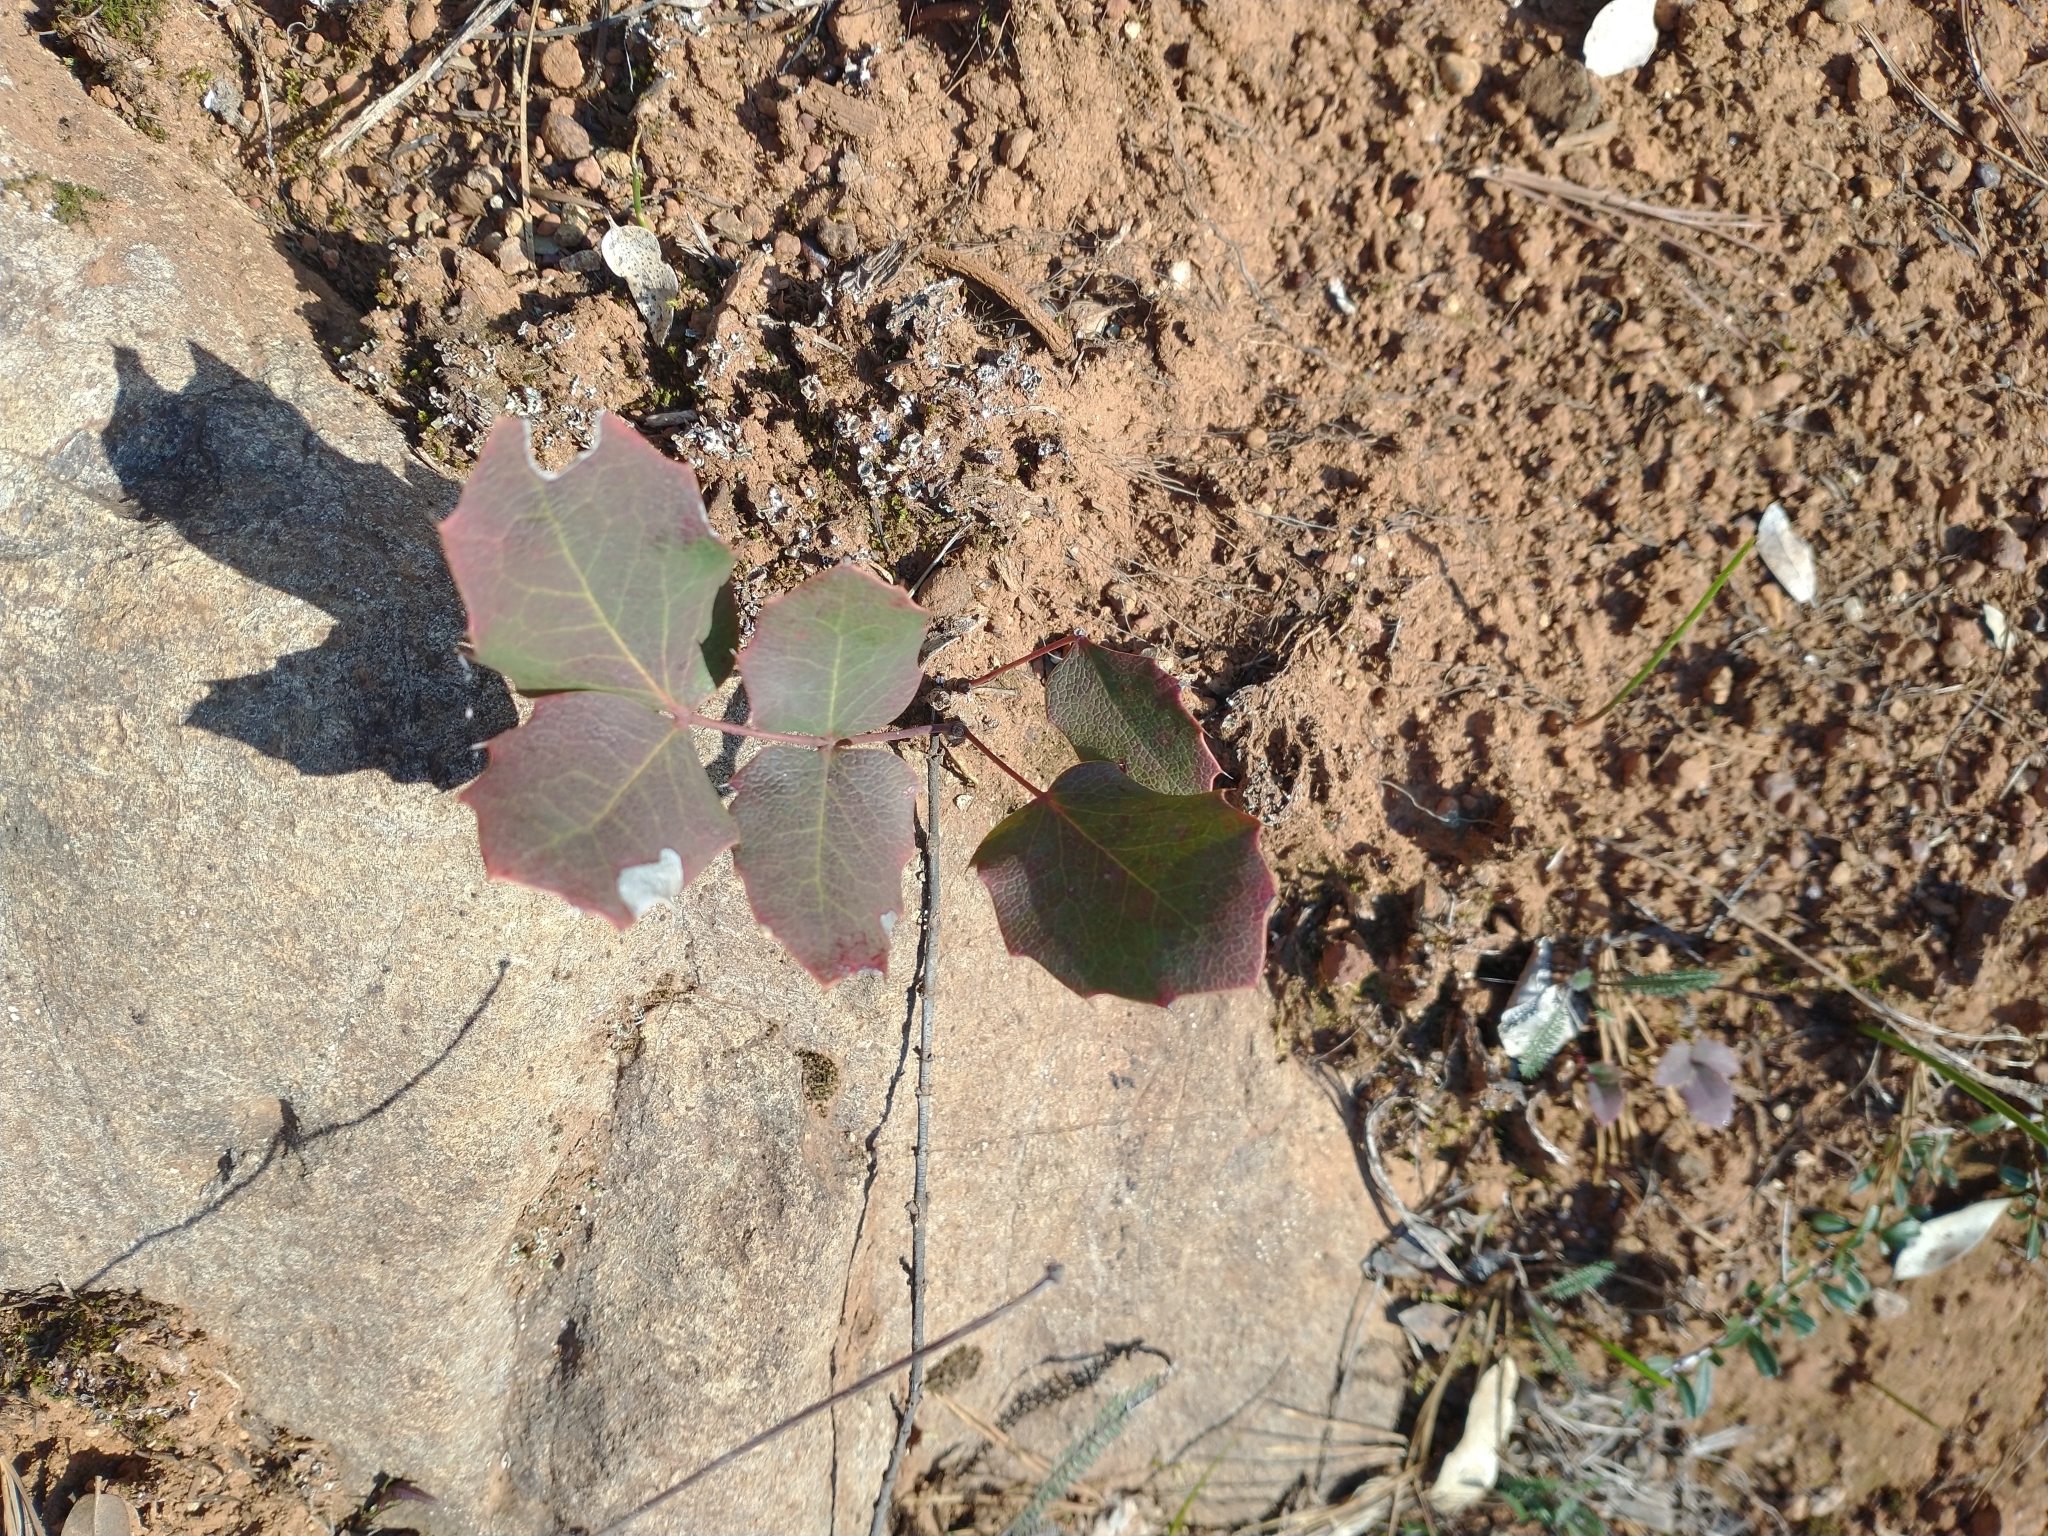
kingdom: Plantae
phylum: Tracheophyta
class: Magnoliopsida
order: Ranunculales
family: Berberidaceae
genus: Mahonia
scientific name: Mahonia repens
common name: Creeping oregon-grape
